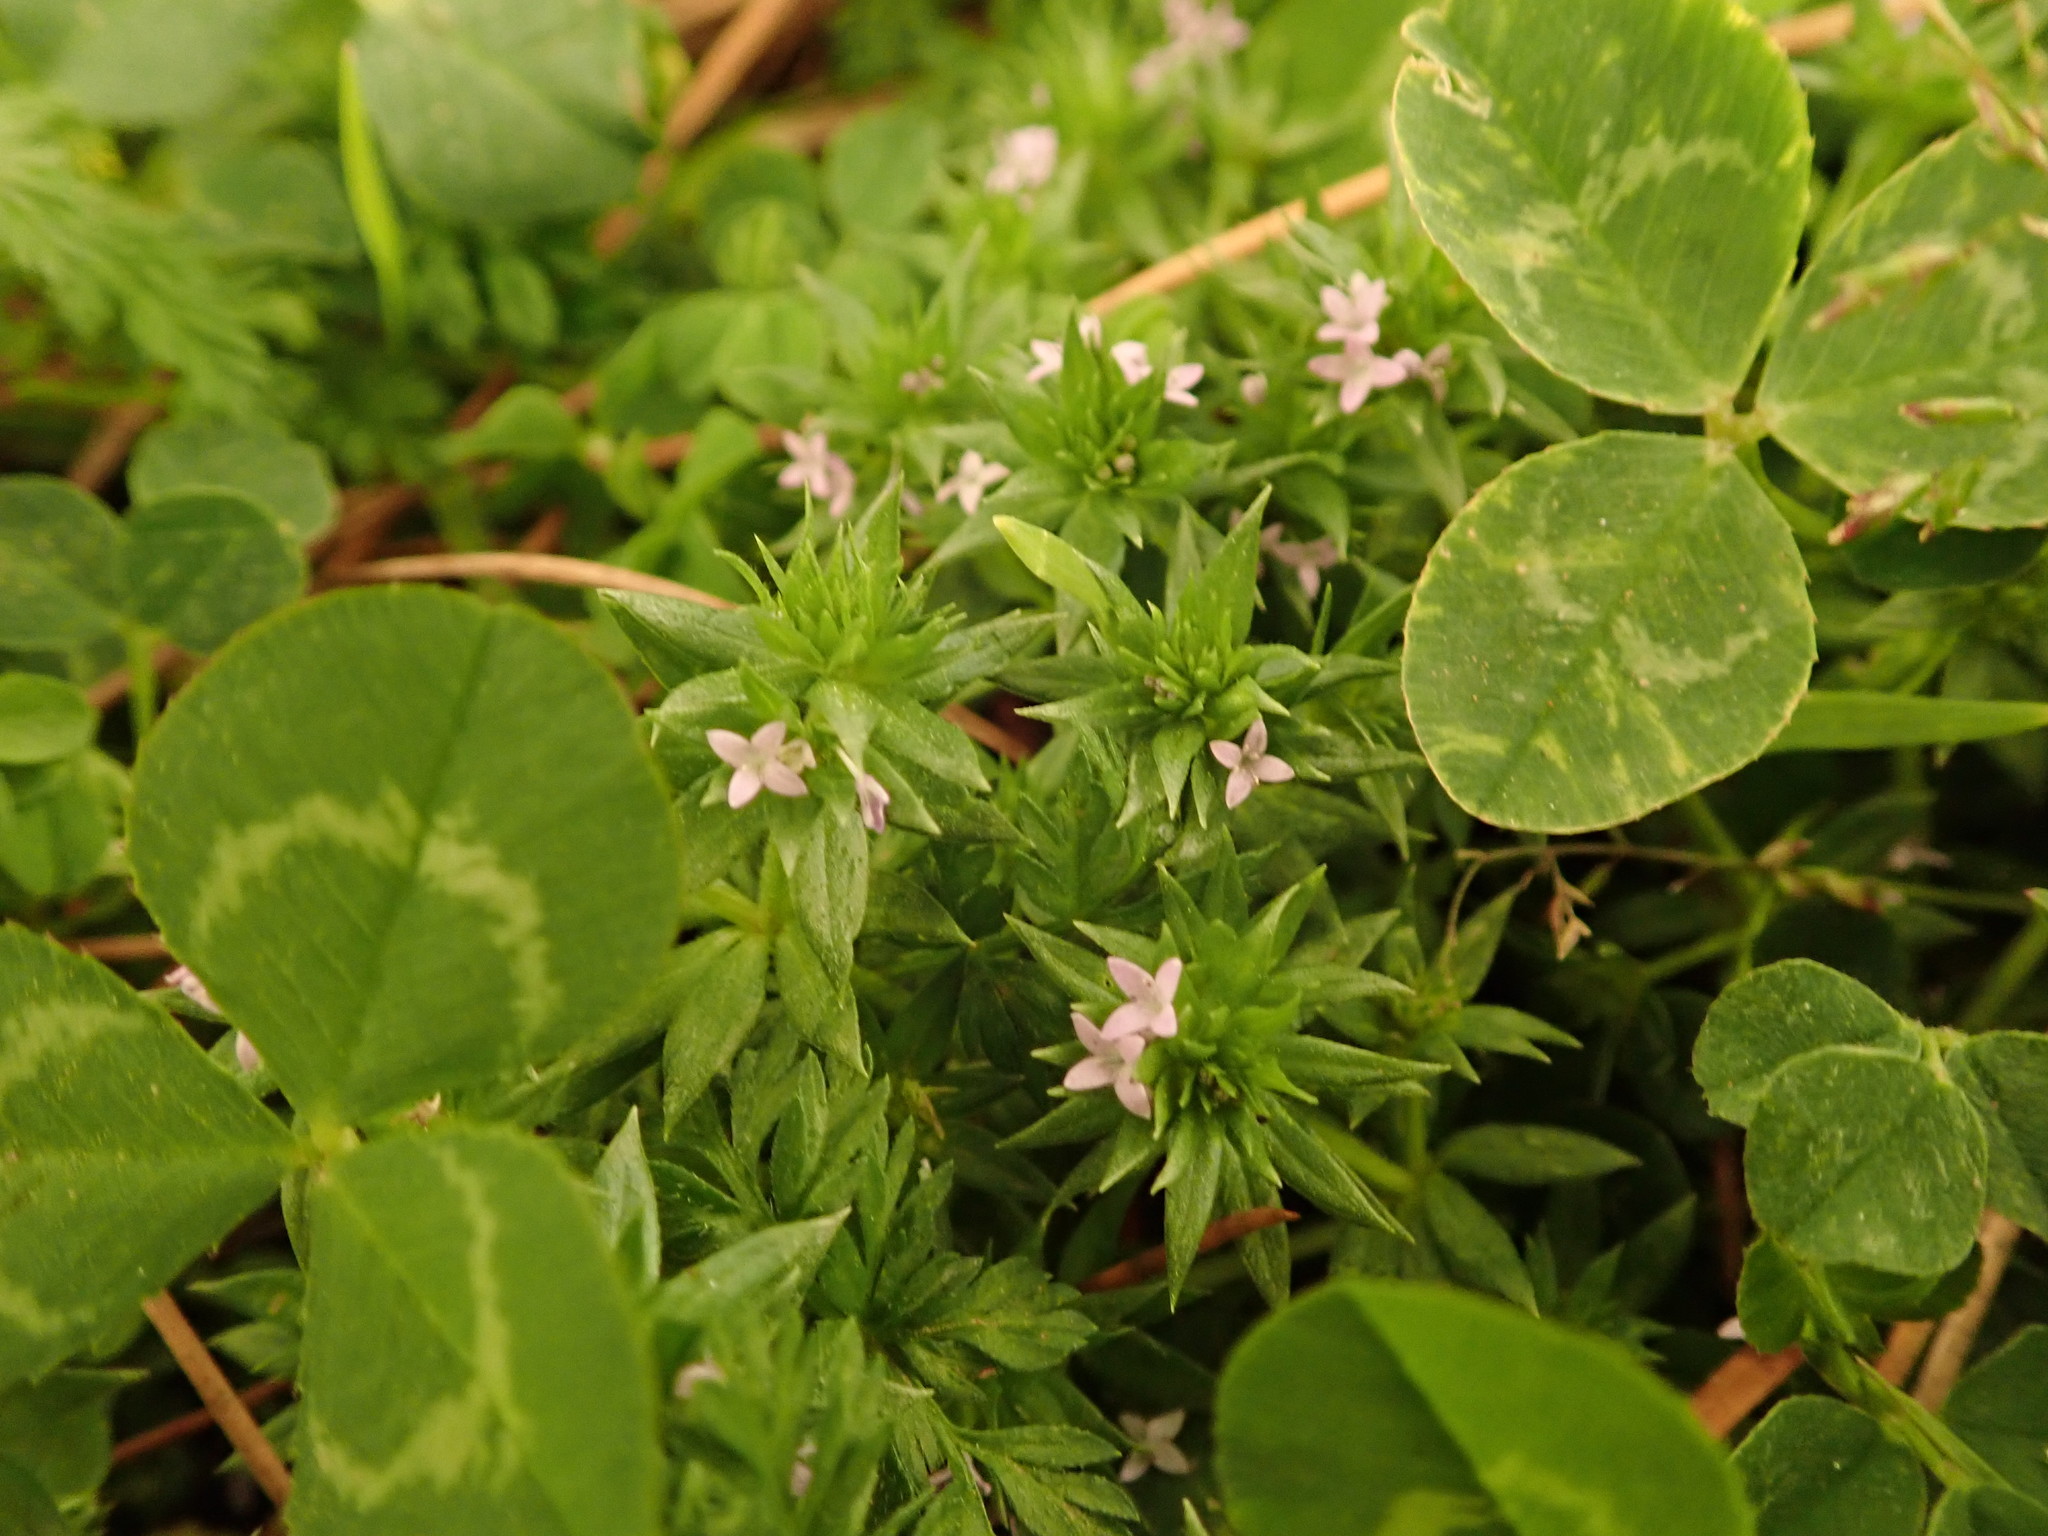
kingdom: Plantae
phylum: Tracheophyta
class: Magnoliopsida
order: Gentianales
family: Rubiaceae
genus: Sherardia
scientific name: Sherardia arvensis
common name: Field madder
